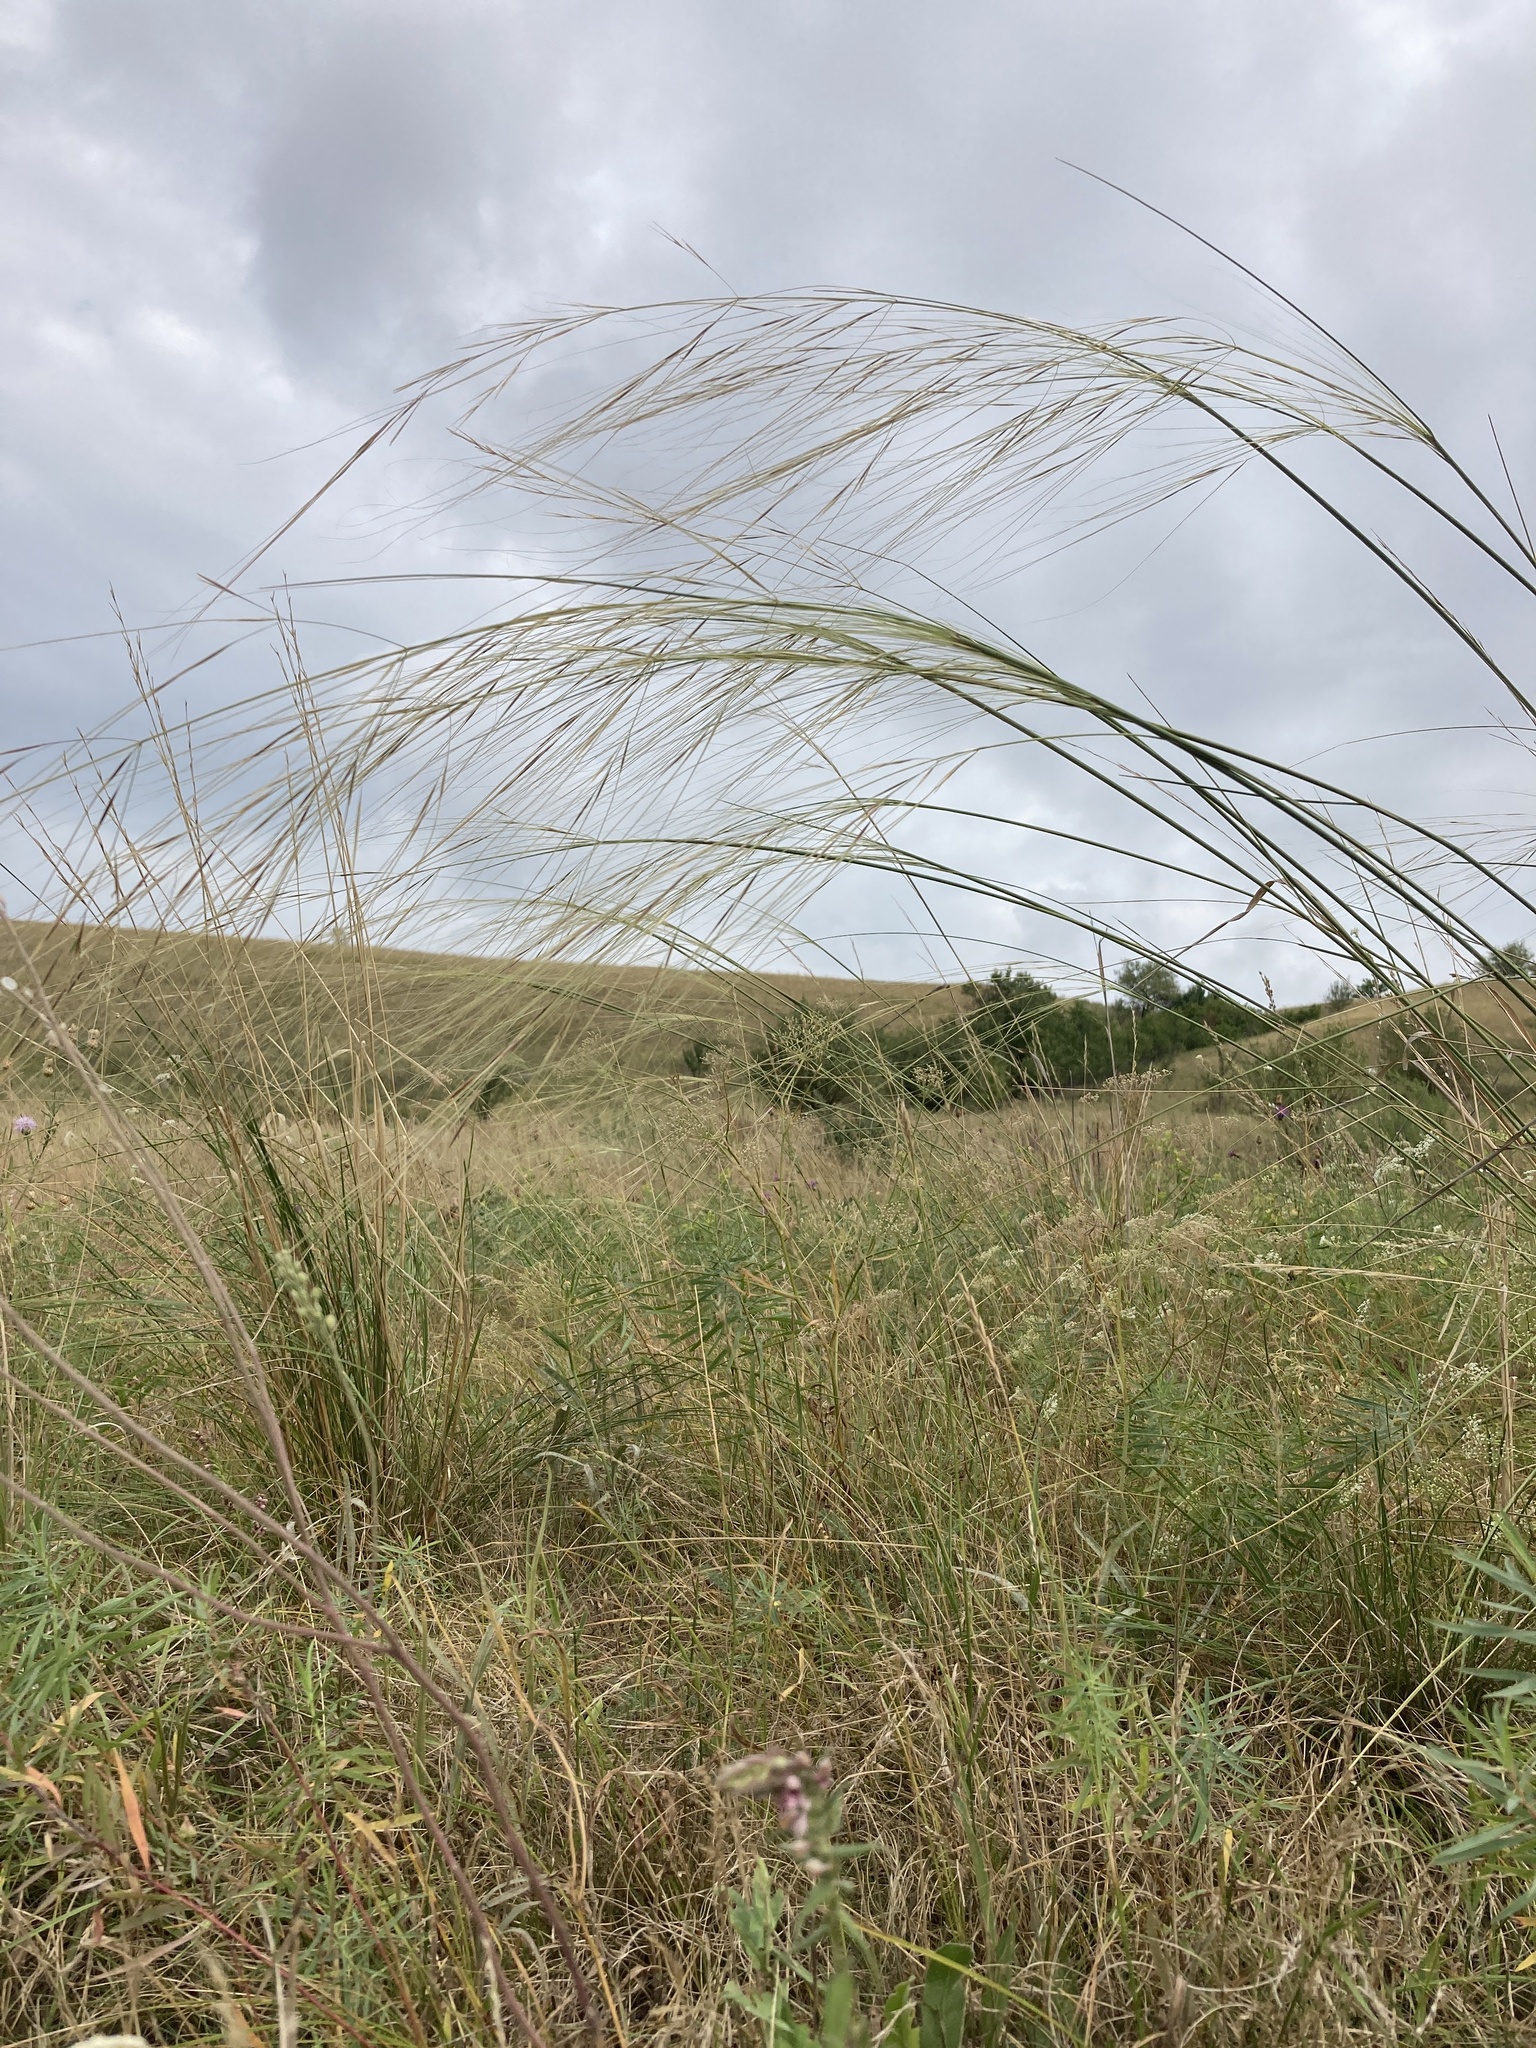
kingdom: Plantae
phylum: Tracheophyta
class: Liliopsida
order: Poales
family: Poaceae
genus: Stipa
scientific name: Stipa capillata
